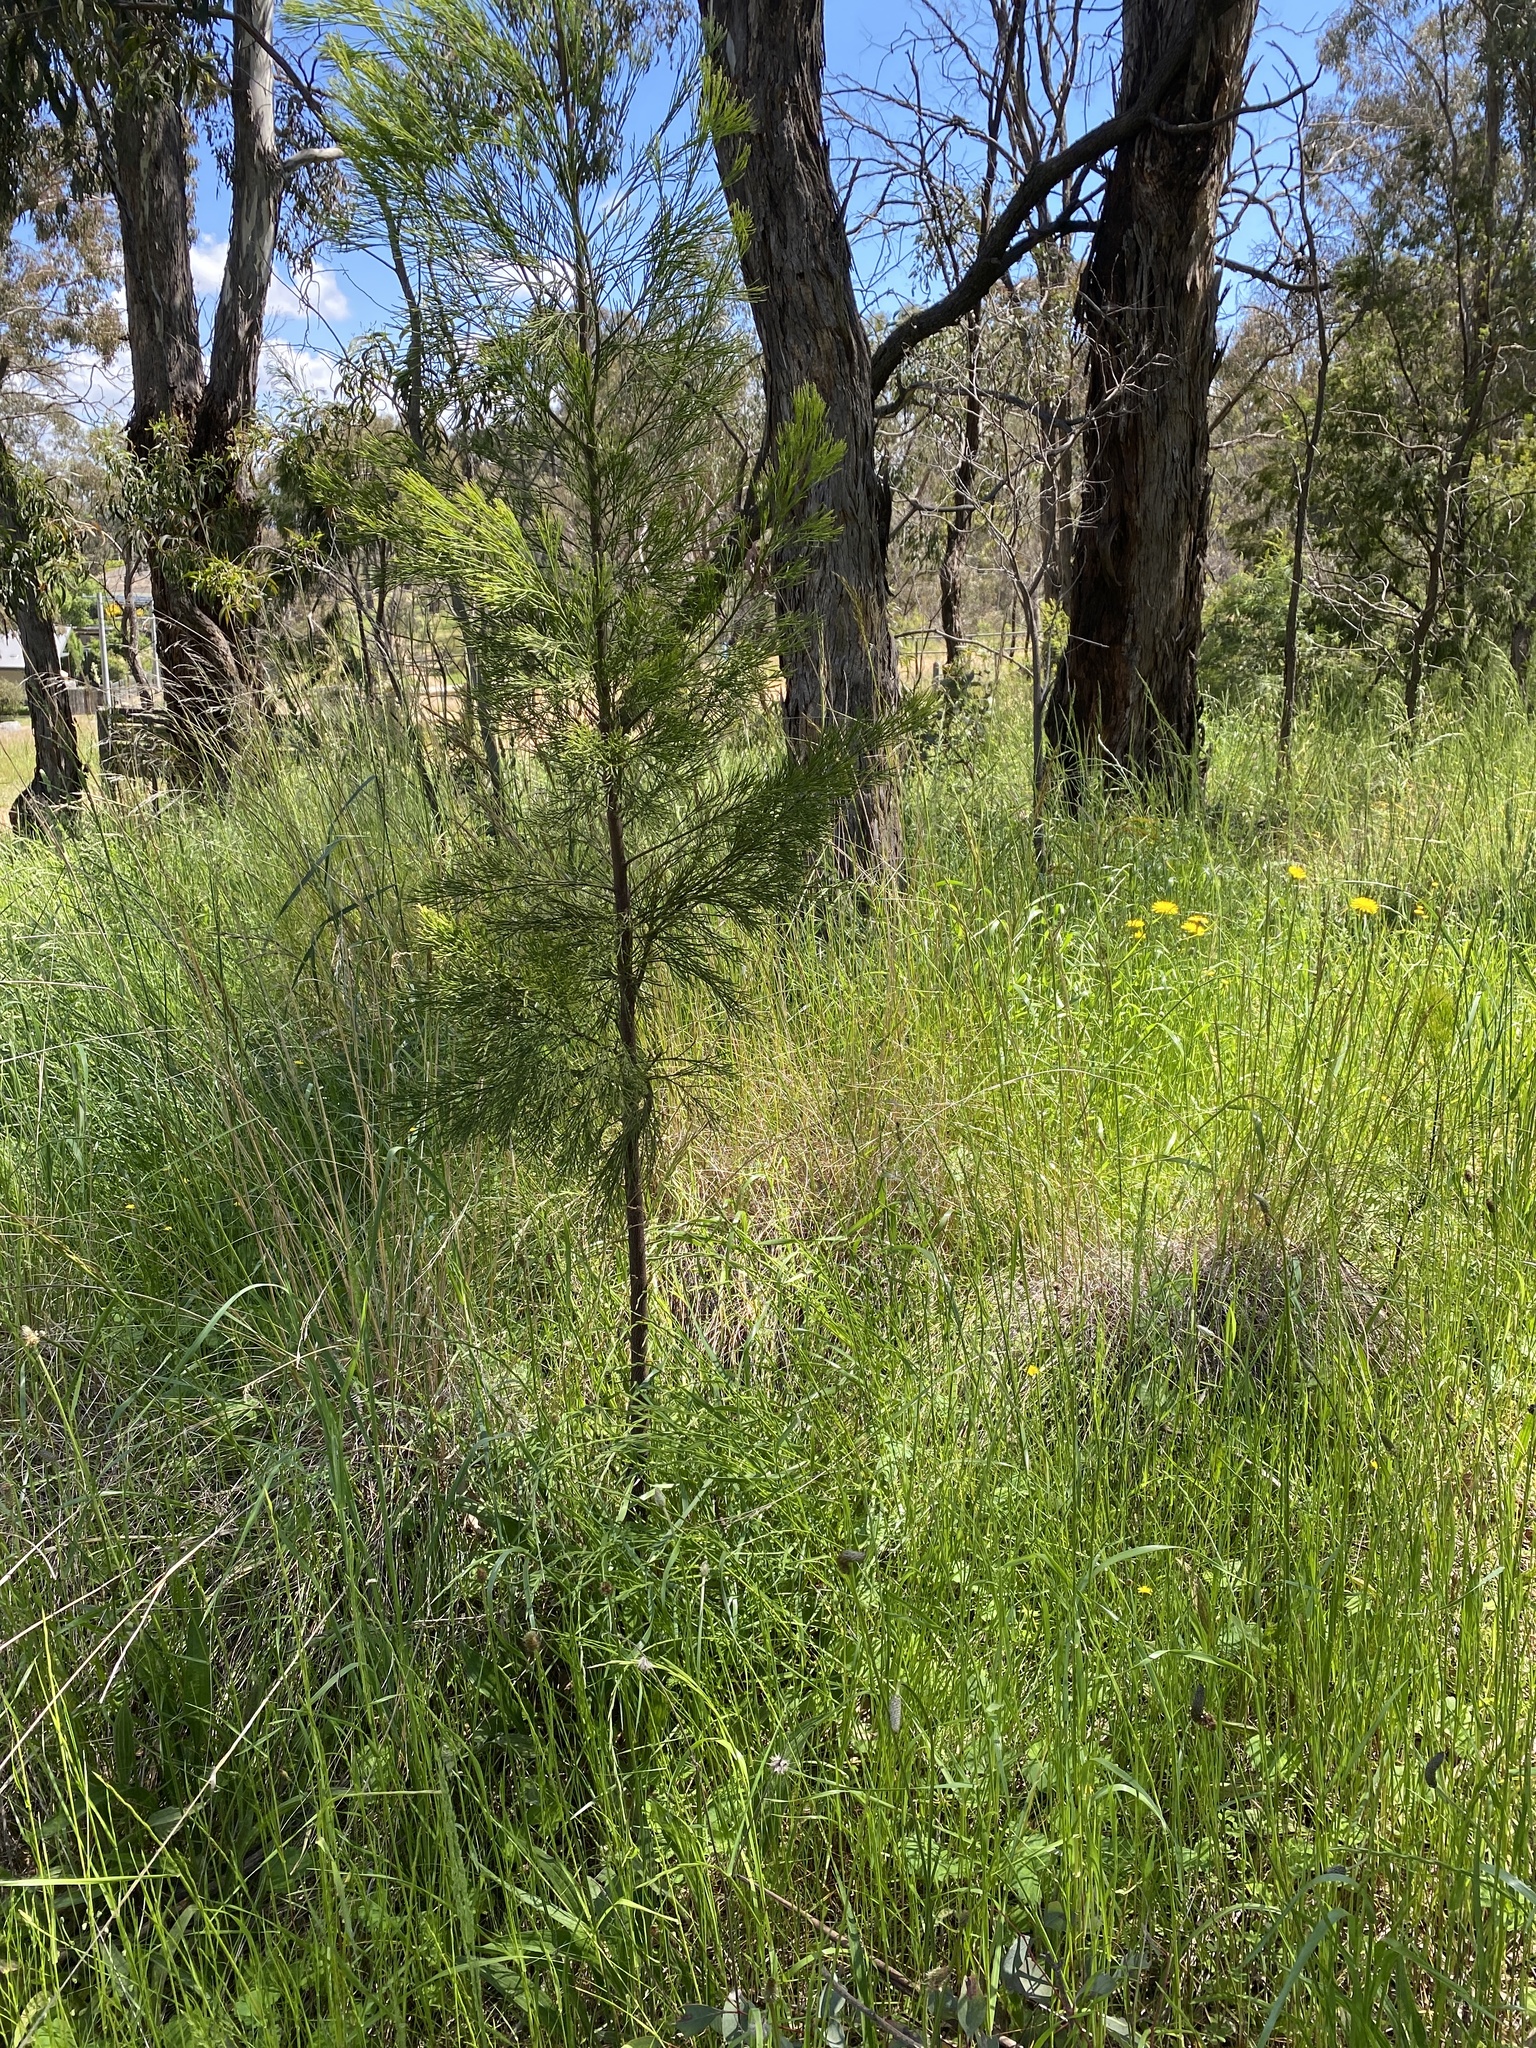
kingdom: Plantae
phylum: Tracheophyta
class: Magnoliopsida
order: Santalales
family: Santalaceae
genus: Exocarpos
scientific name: Exocarpos cupressiformis
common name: Cherry ballart
